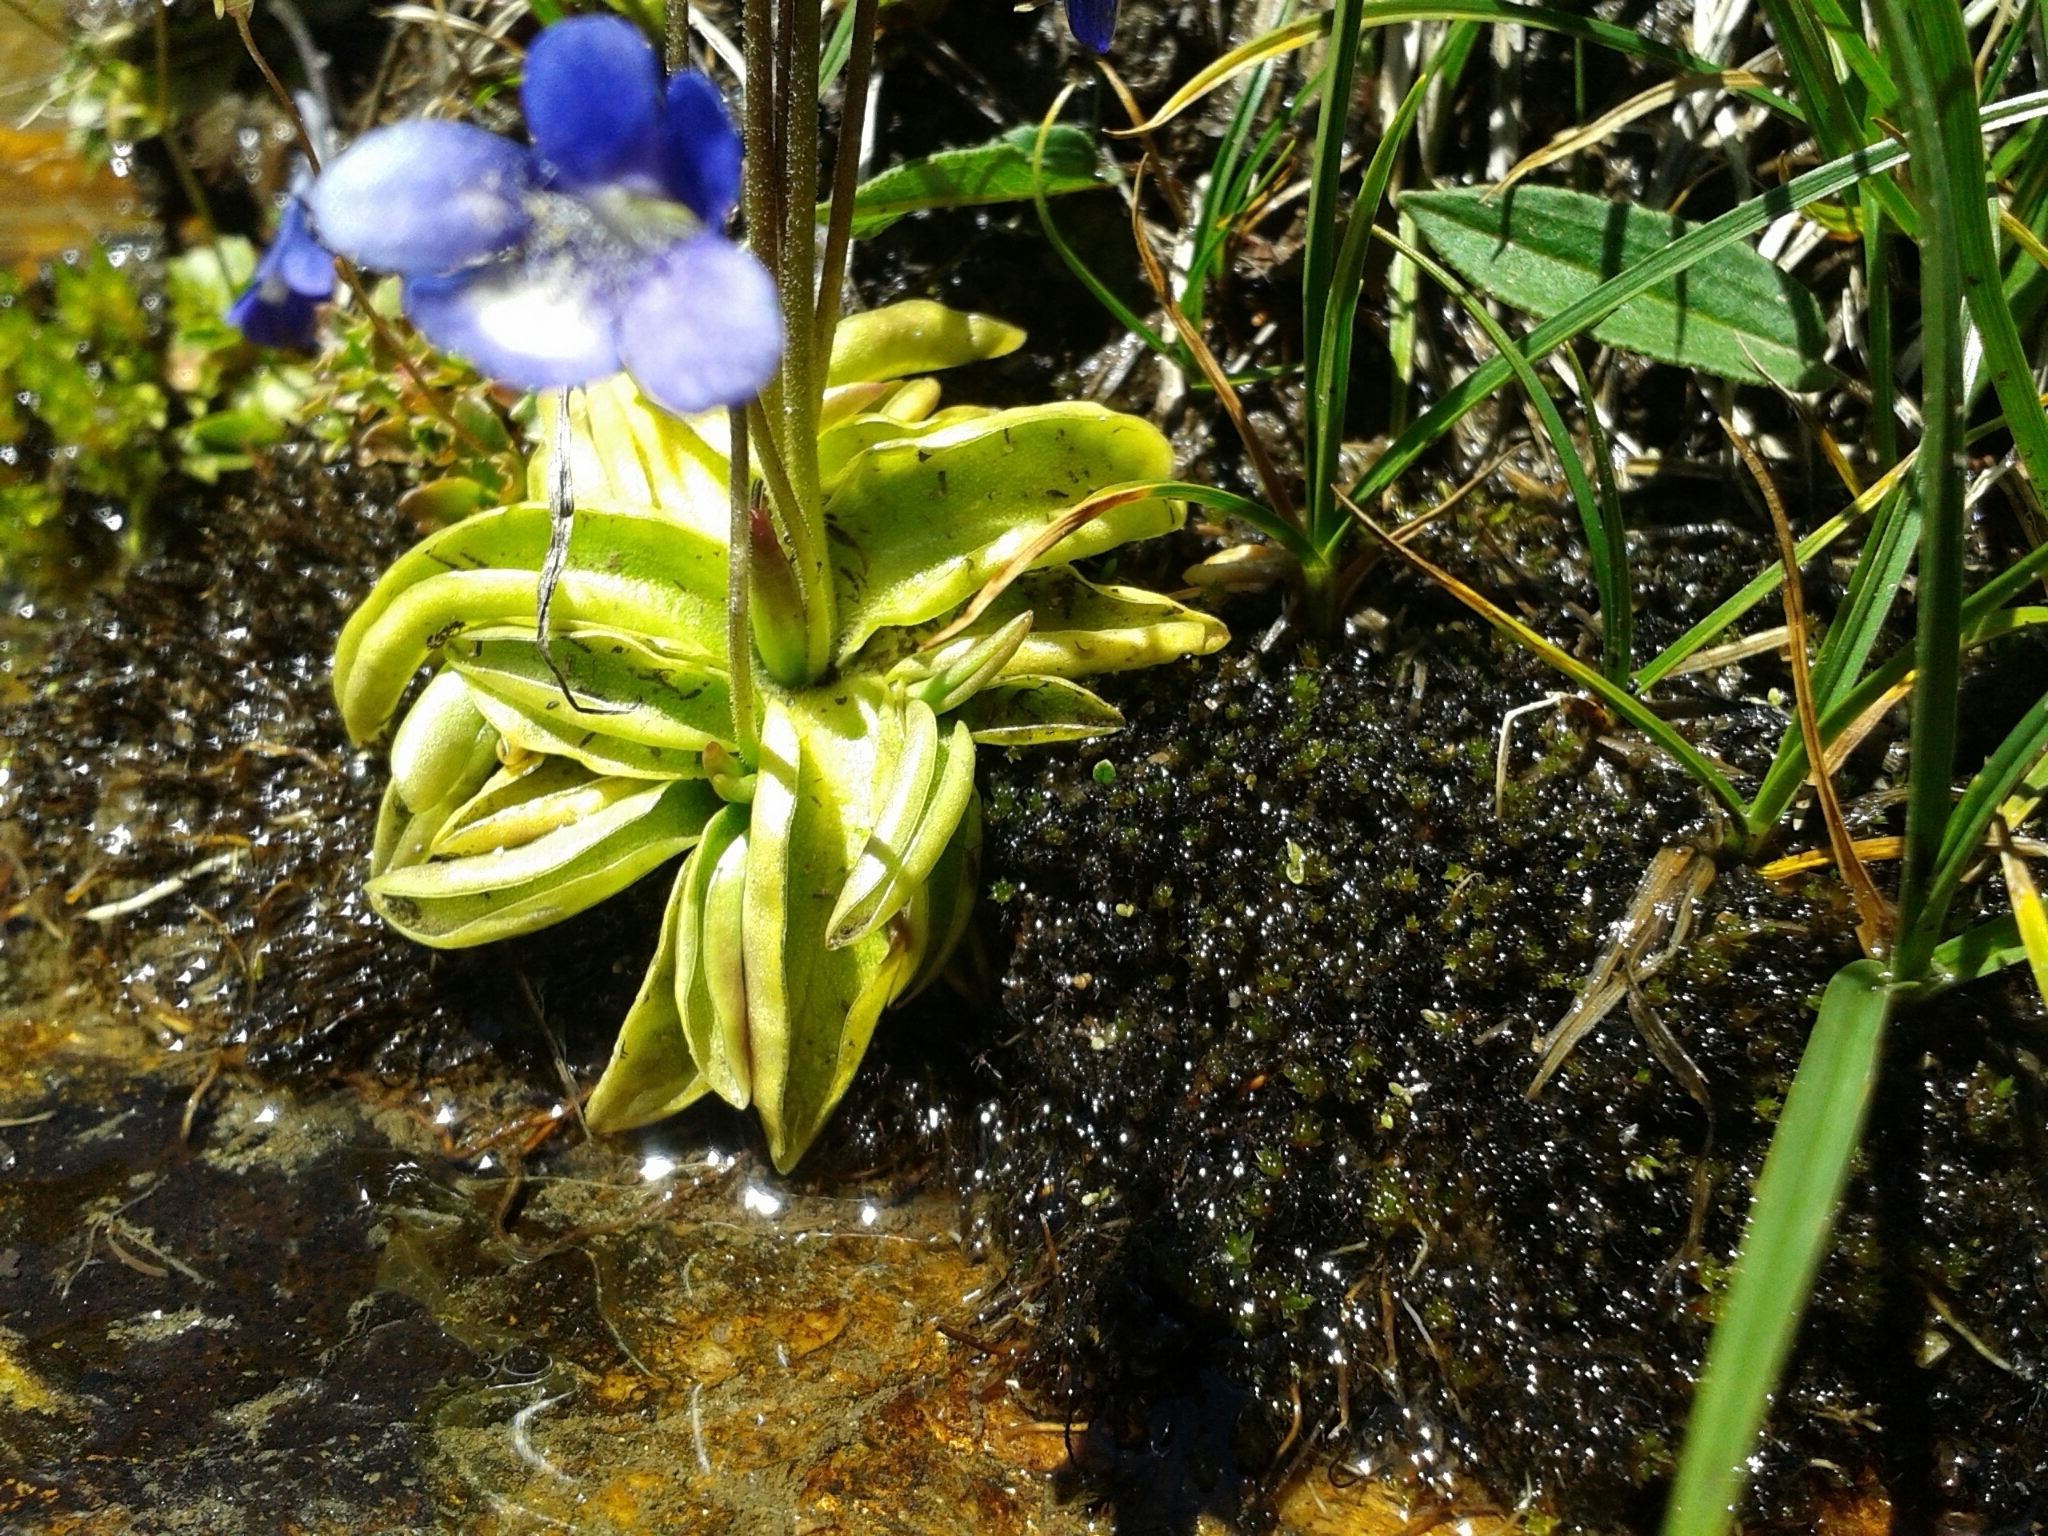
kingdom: Plantae
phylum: Tracheophyta
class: Magnoliopsida
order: Lamiales
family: Lentibulariaceae
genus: Pinguicula
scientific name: Pinguicula vulgaris
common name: Common butterwort
